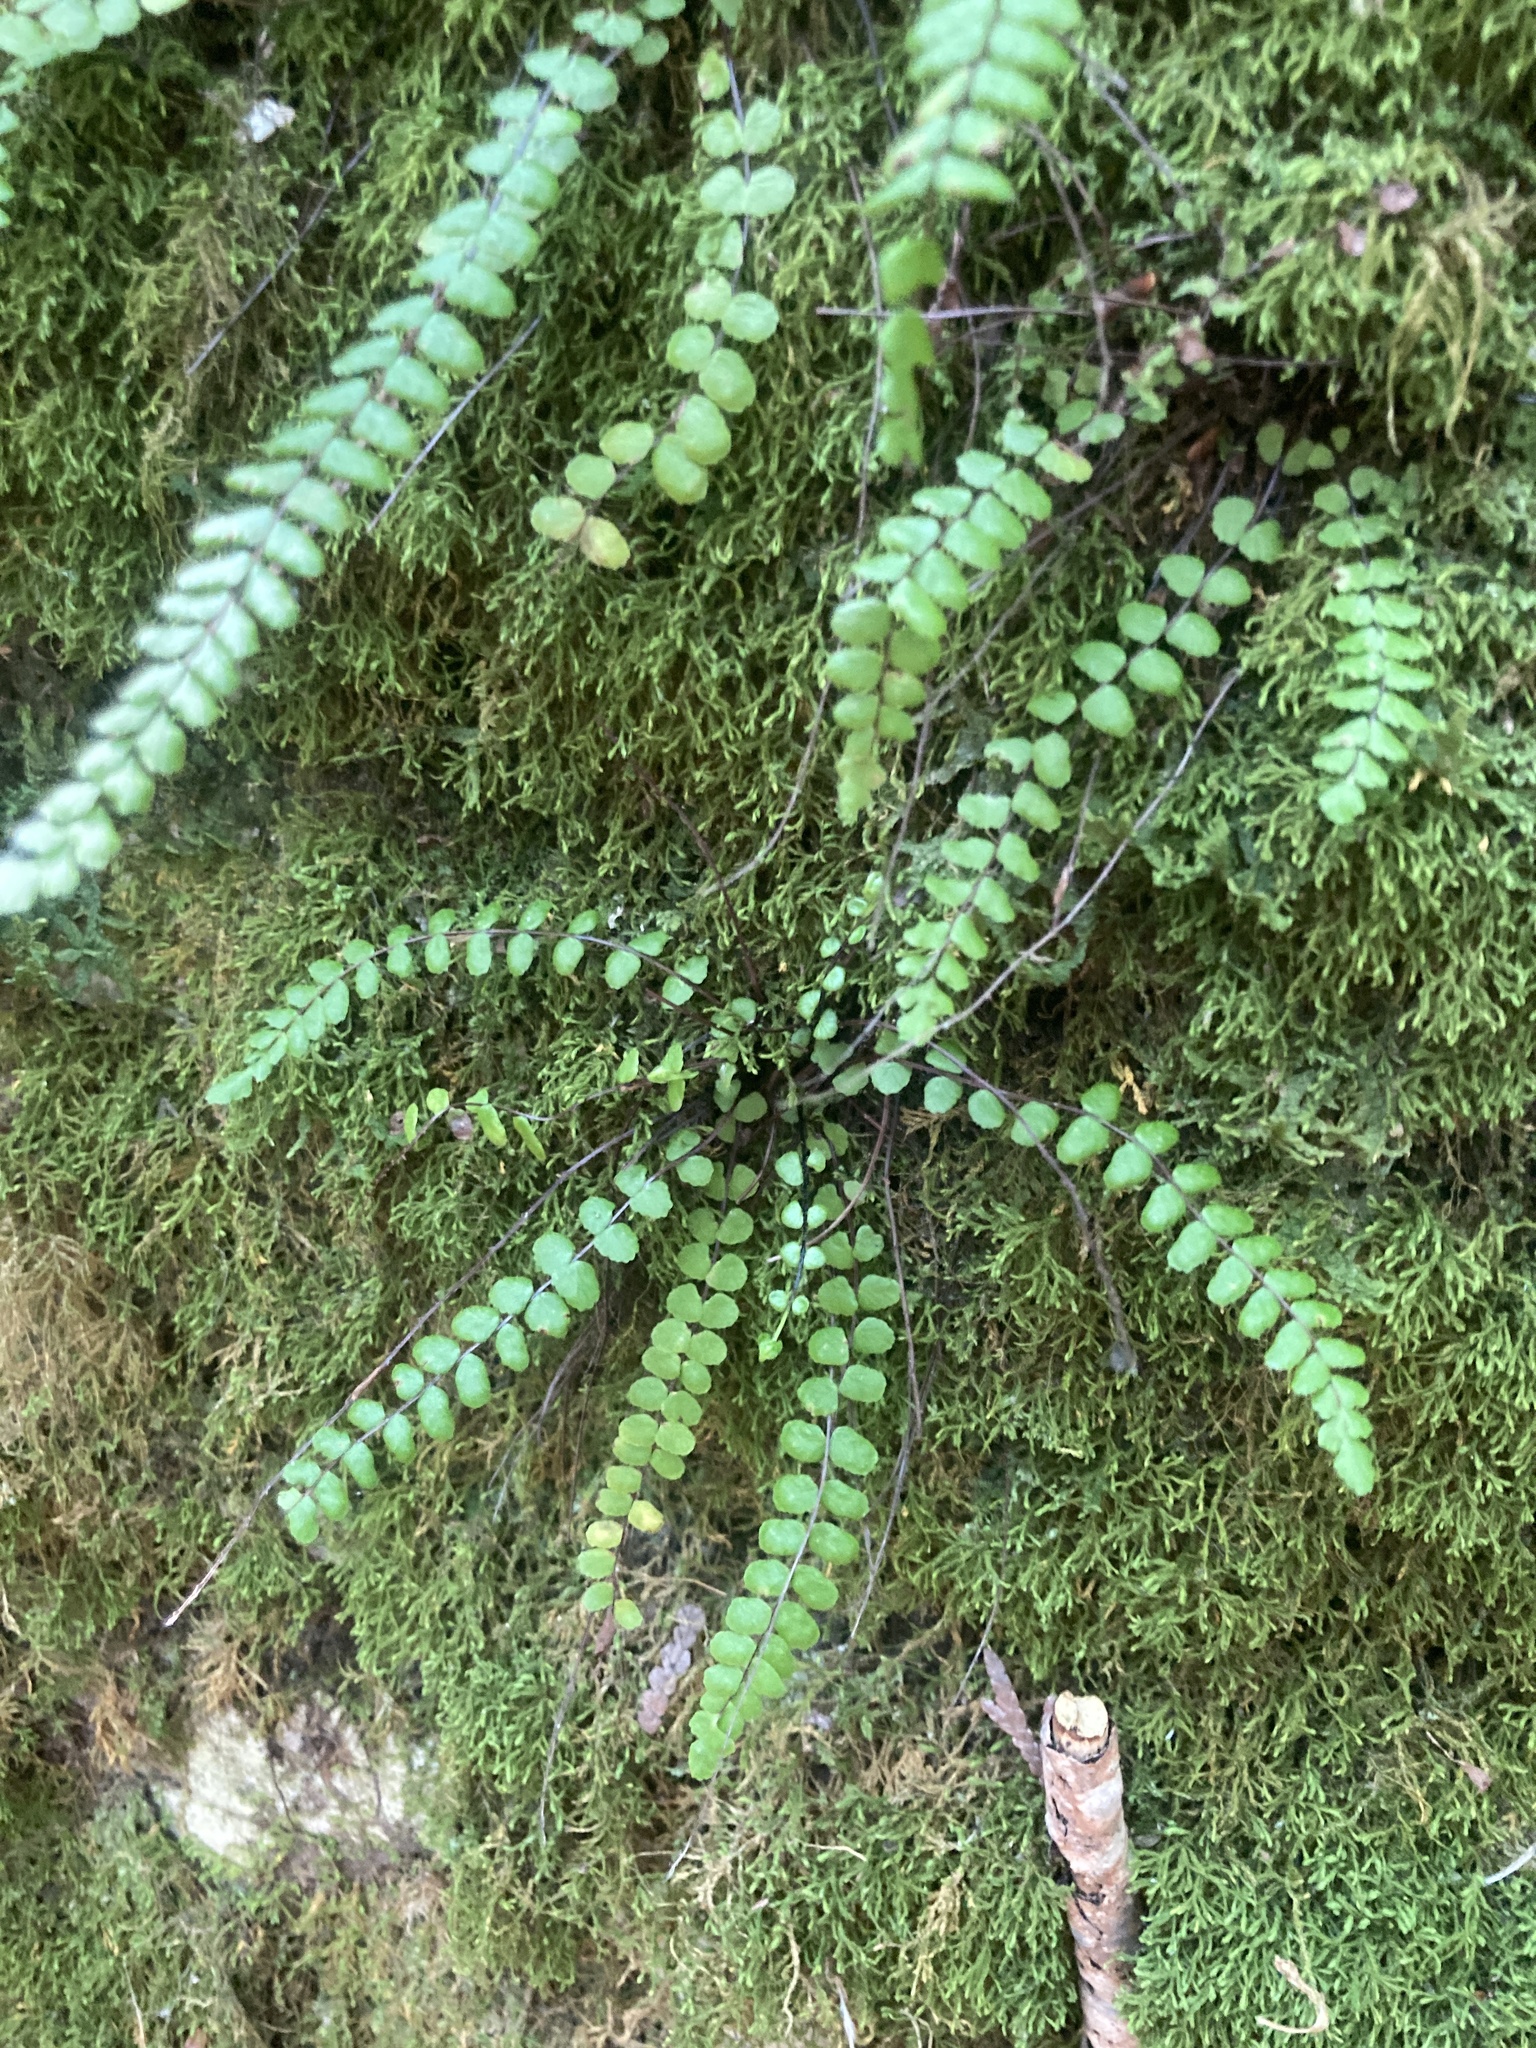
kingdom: Plantae
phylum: Tracheophyta
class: Polypodiopsida
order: Polypodiales
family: Aspleniaceae
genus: Asplenium
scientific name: Asplenium trichomanes
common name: Maidenhair spleenwort
